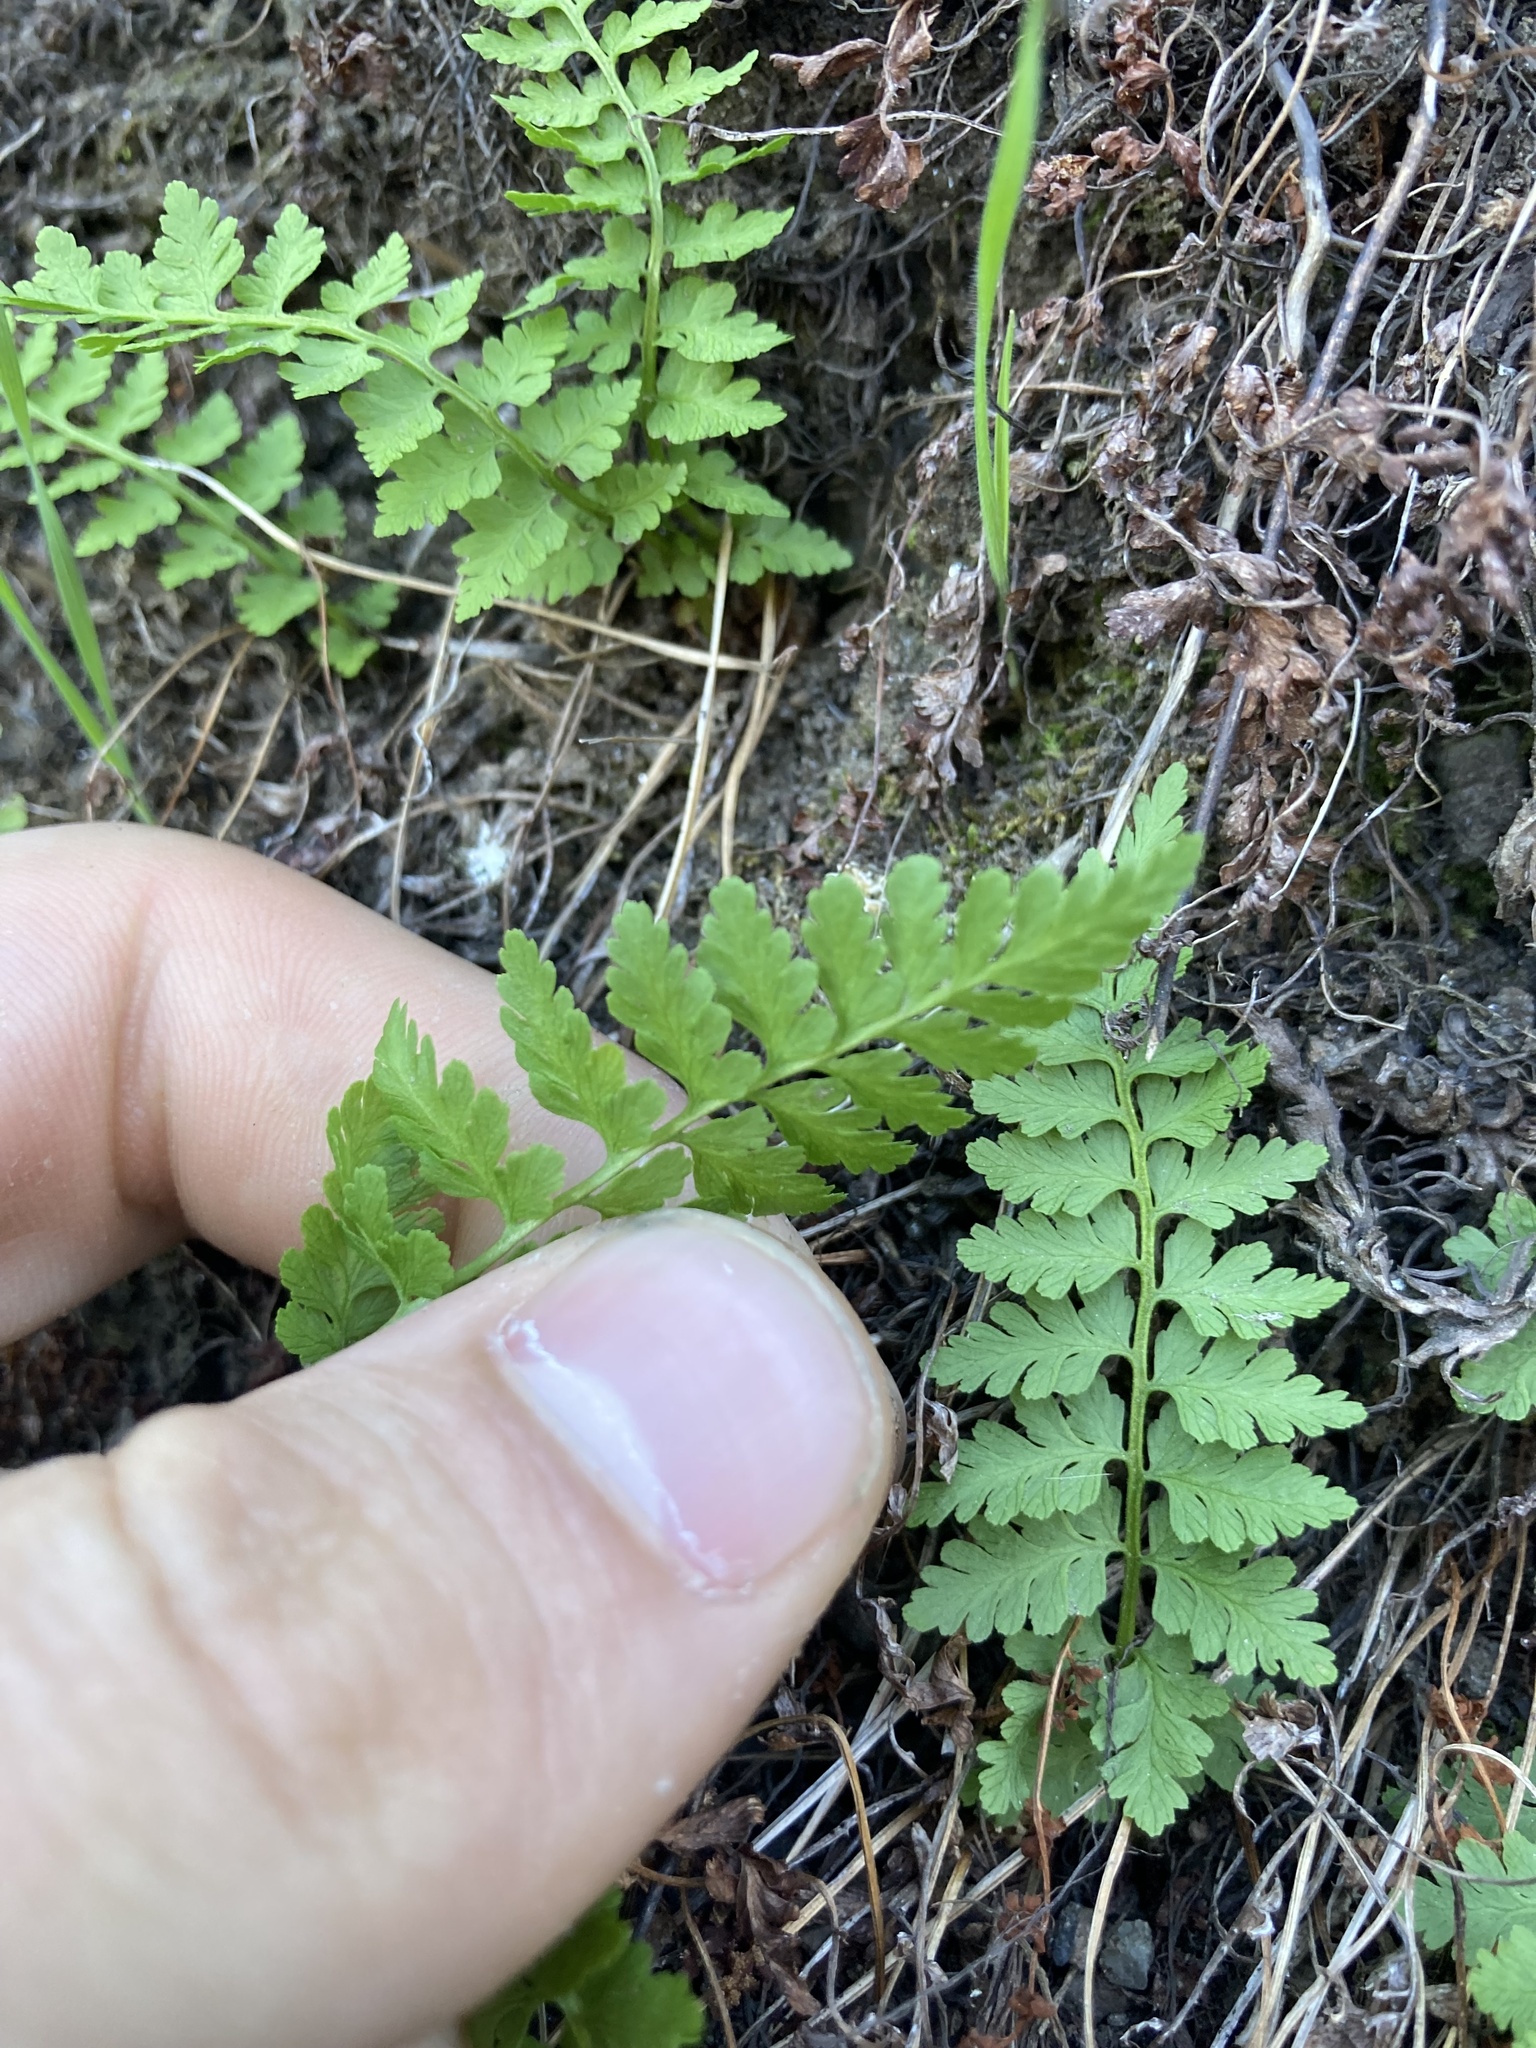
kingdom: Plantae
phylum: Tracheophyta
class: Polypodiopsida
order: Polypodiales
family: Cystopteridaceae
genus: Cystopteris
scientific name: Cystopteris fragilis
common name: Brittle bladder fern
